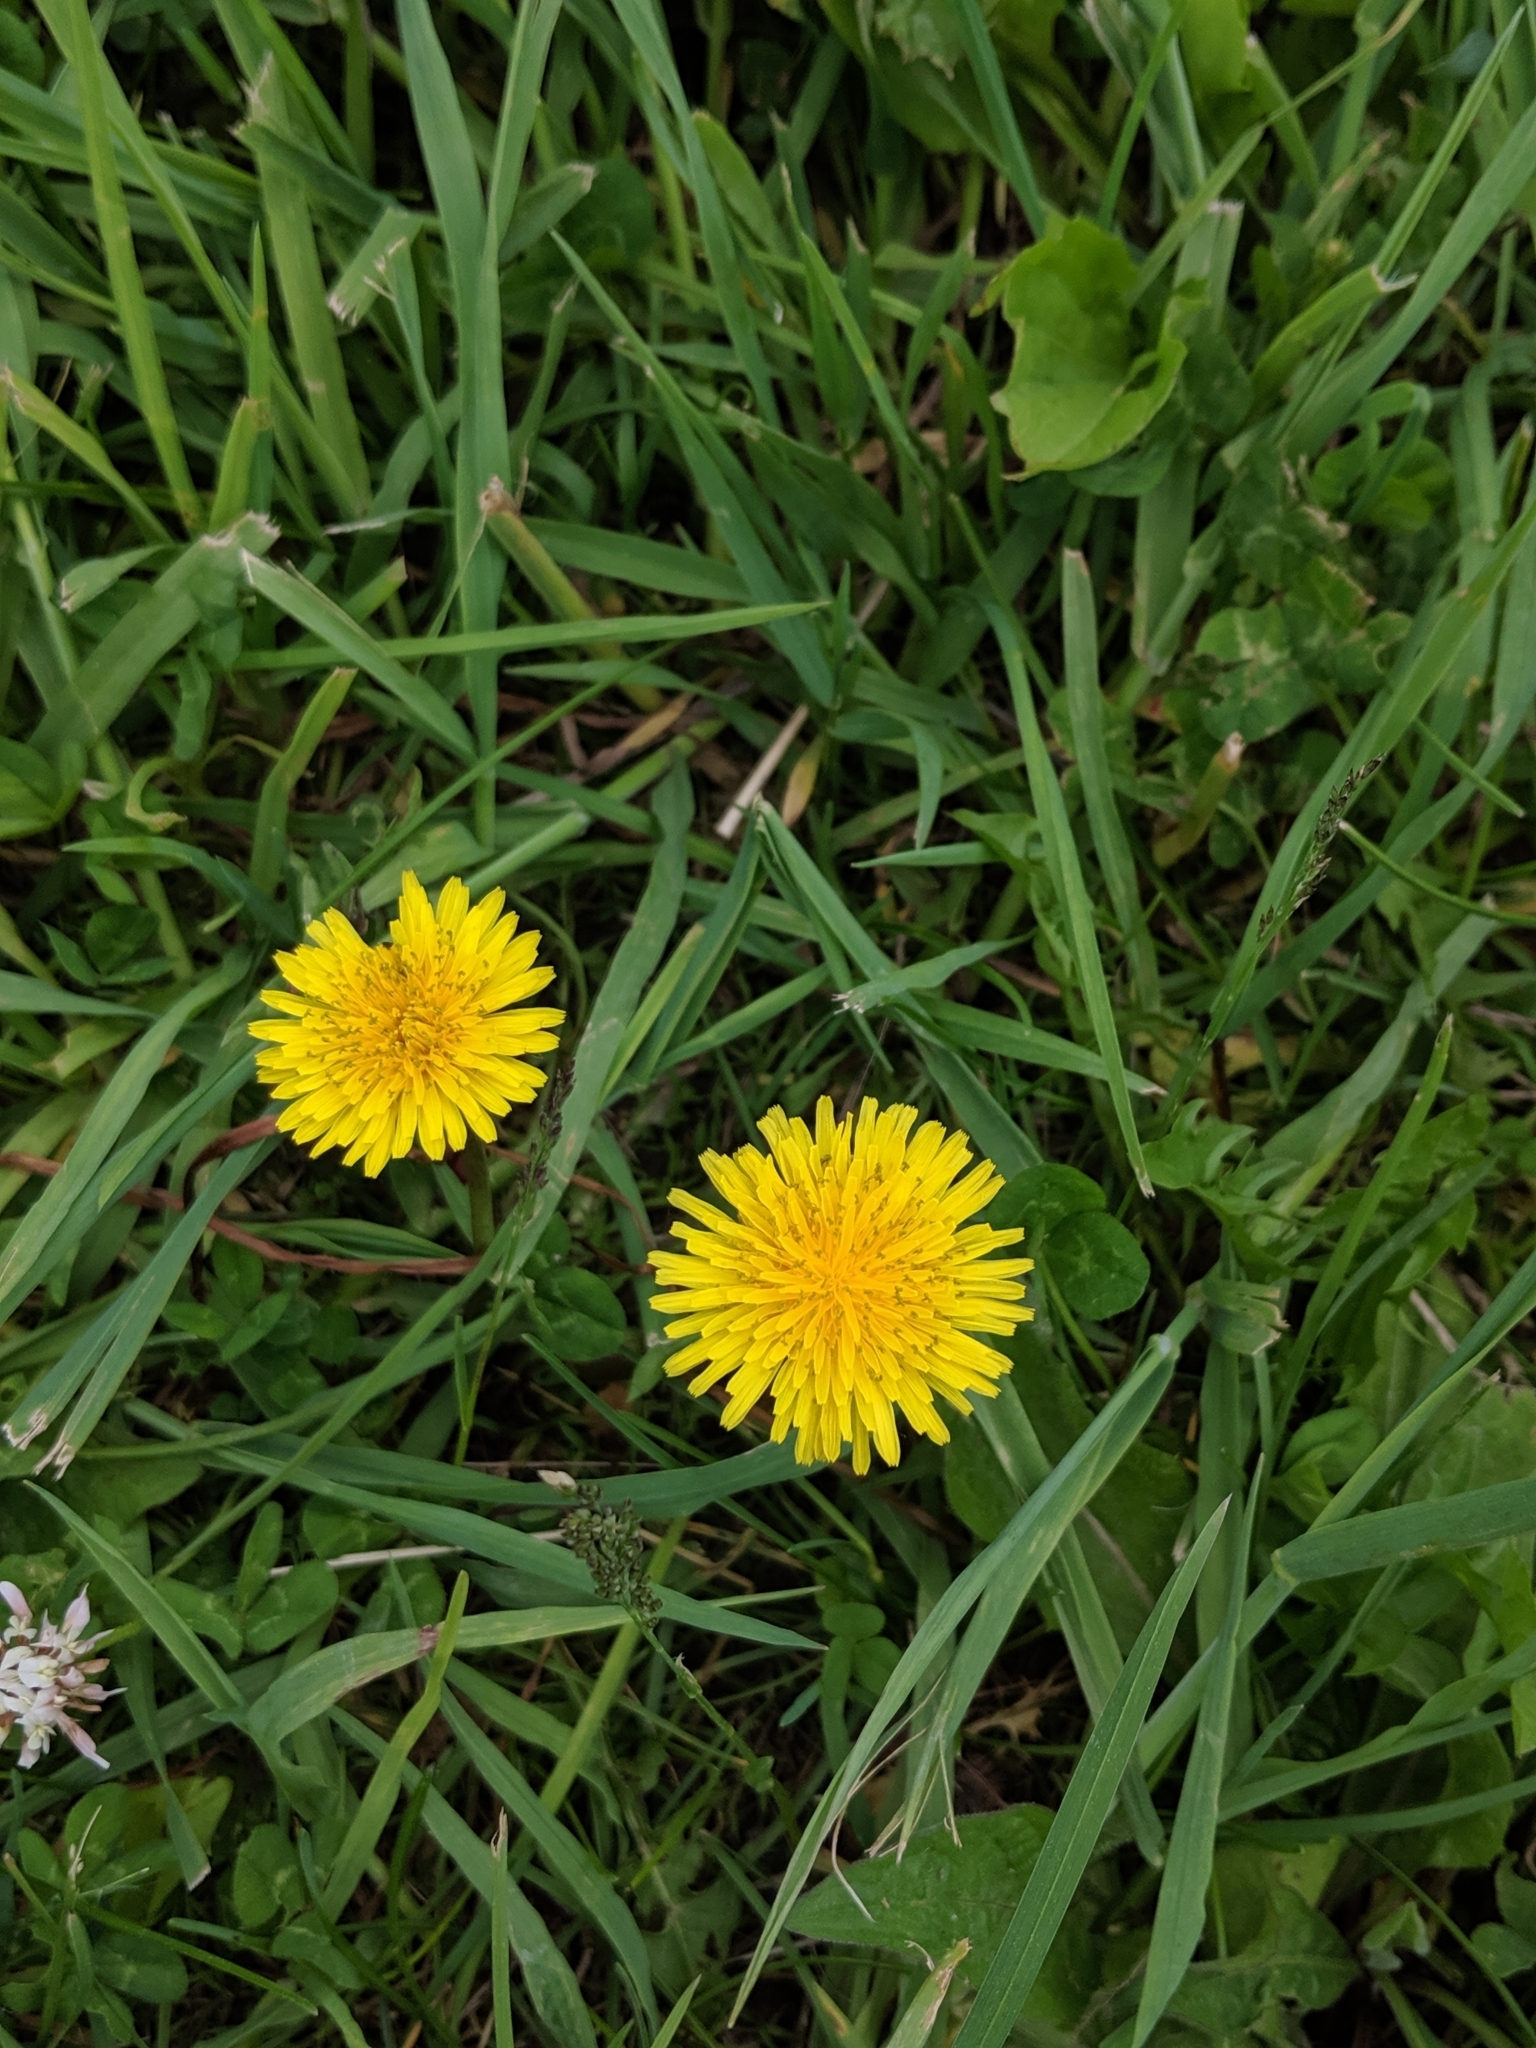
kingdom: Plantae
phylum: Tracheophyta
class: Magnoliopsida
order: Asterales
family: Asteraceae
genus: Taraxacum
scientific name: Taraxacum officinale
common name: Common dandelion
